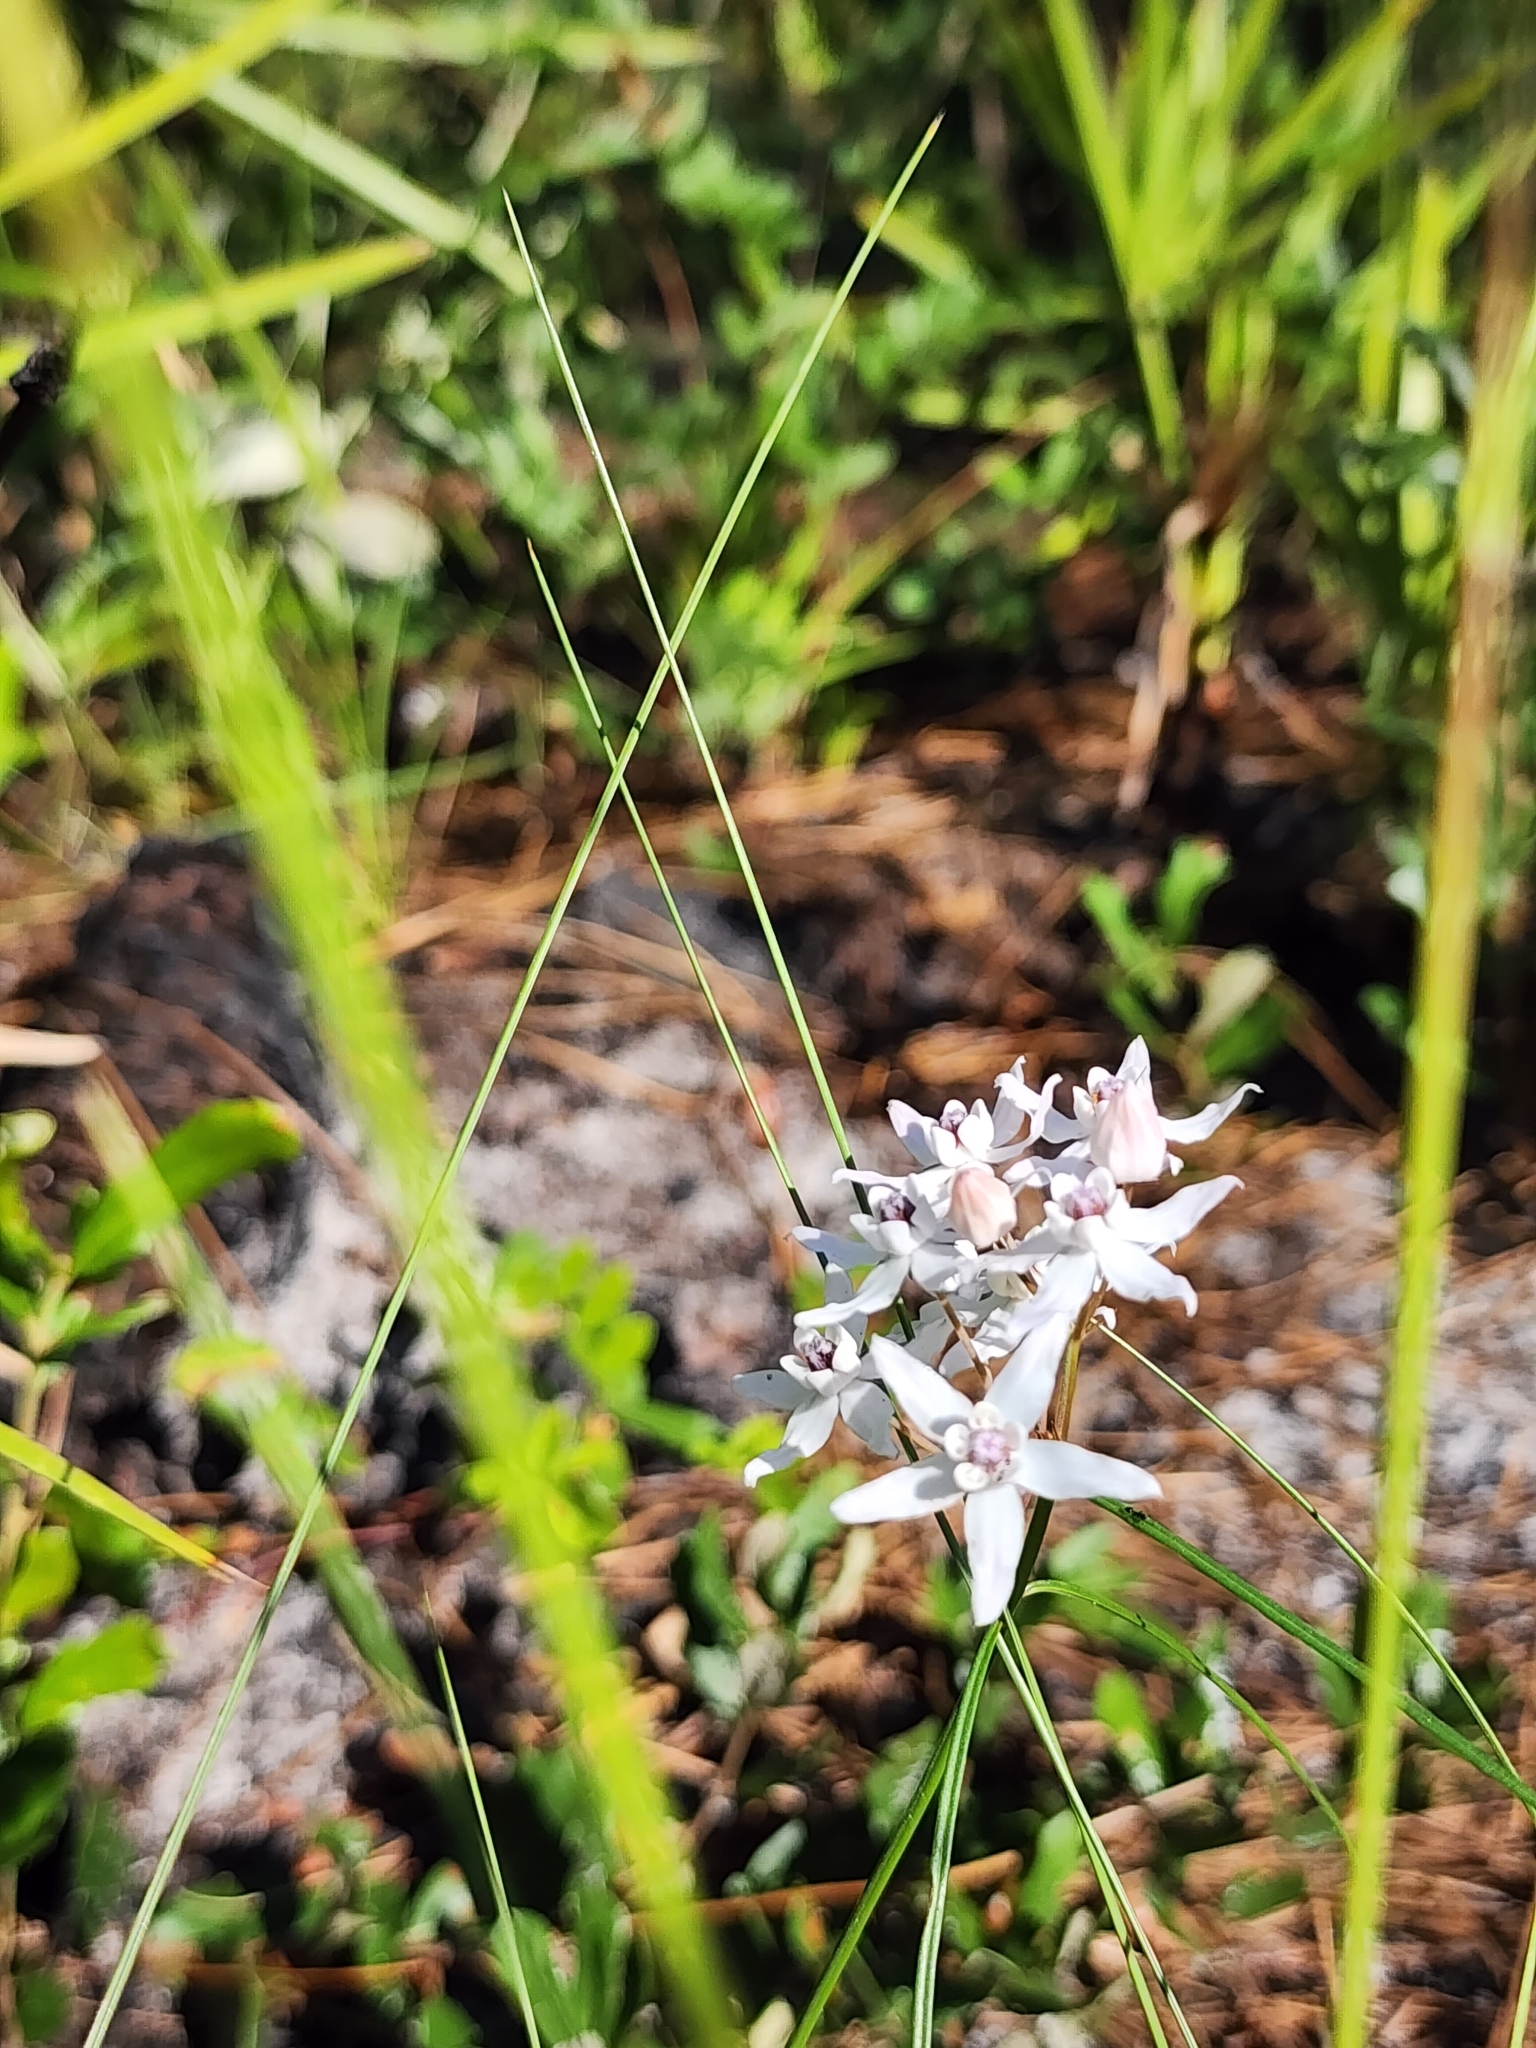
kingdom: Plantae
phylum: Tracheophyta
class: Magnoliopsida
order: Gentianales
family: Apocynaceae
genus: Asclepias
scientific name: Asclepias feayi
